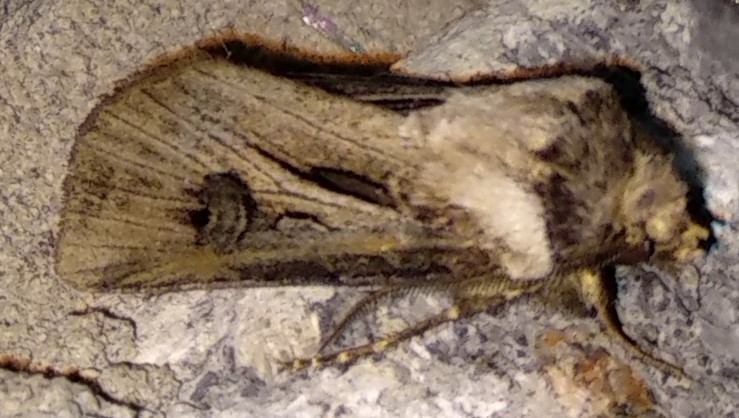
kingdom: Animalia
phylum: Arthropoda
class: Insecta
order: Lepidoptera
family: Noctuidae
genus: Agrotis
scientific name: Agrotis venerabilis
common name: Venerable dart
